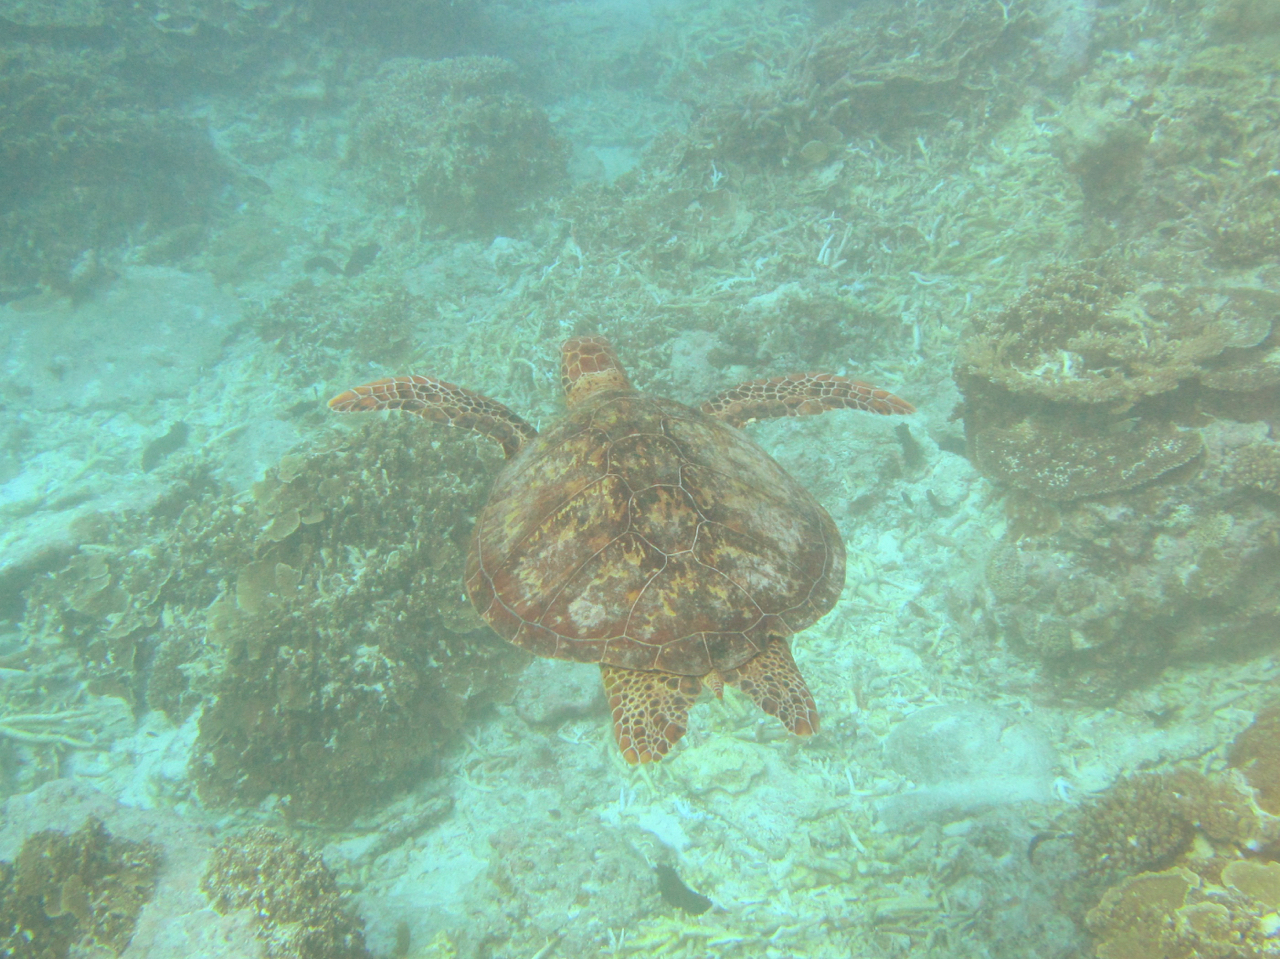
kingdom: Animalia
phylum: Chordata
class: Testudines
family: Cheloniidae
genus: Chelonia
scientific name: Chelonia mydas
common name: Green turtle
